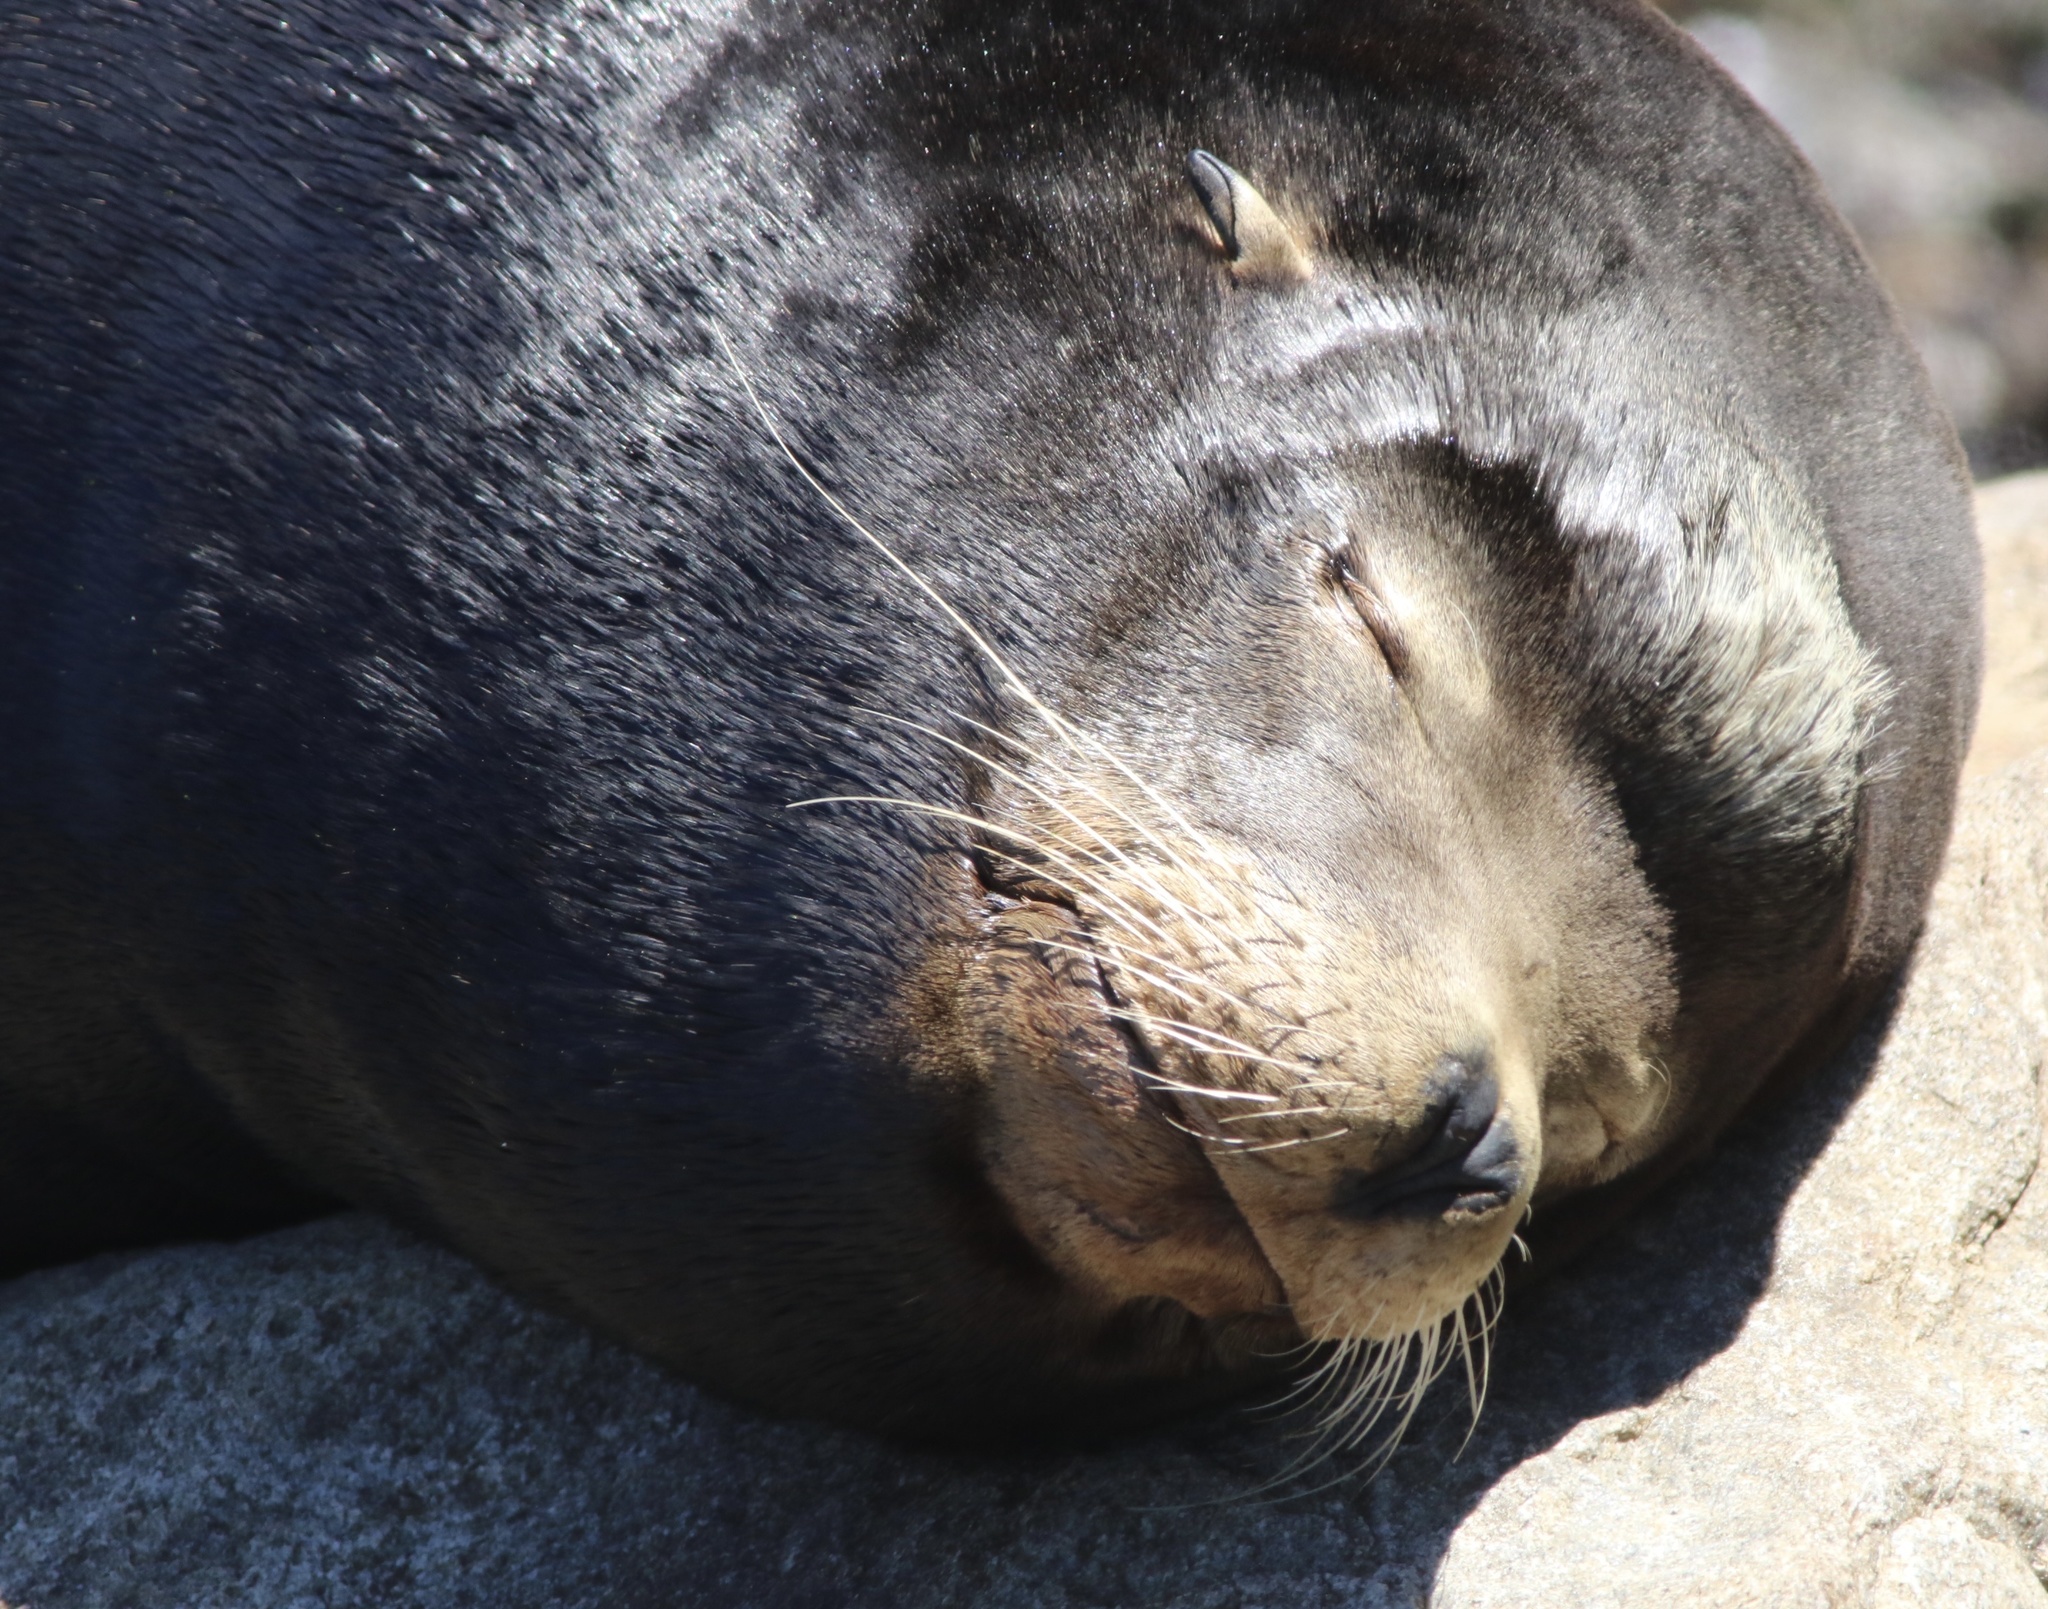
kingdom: Animalia
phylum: Chordata
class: Mammalia
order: Carnivora
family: Otariidae
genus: Zalophus
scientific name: Zalophus californianus
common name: California sea lion
